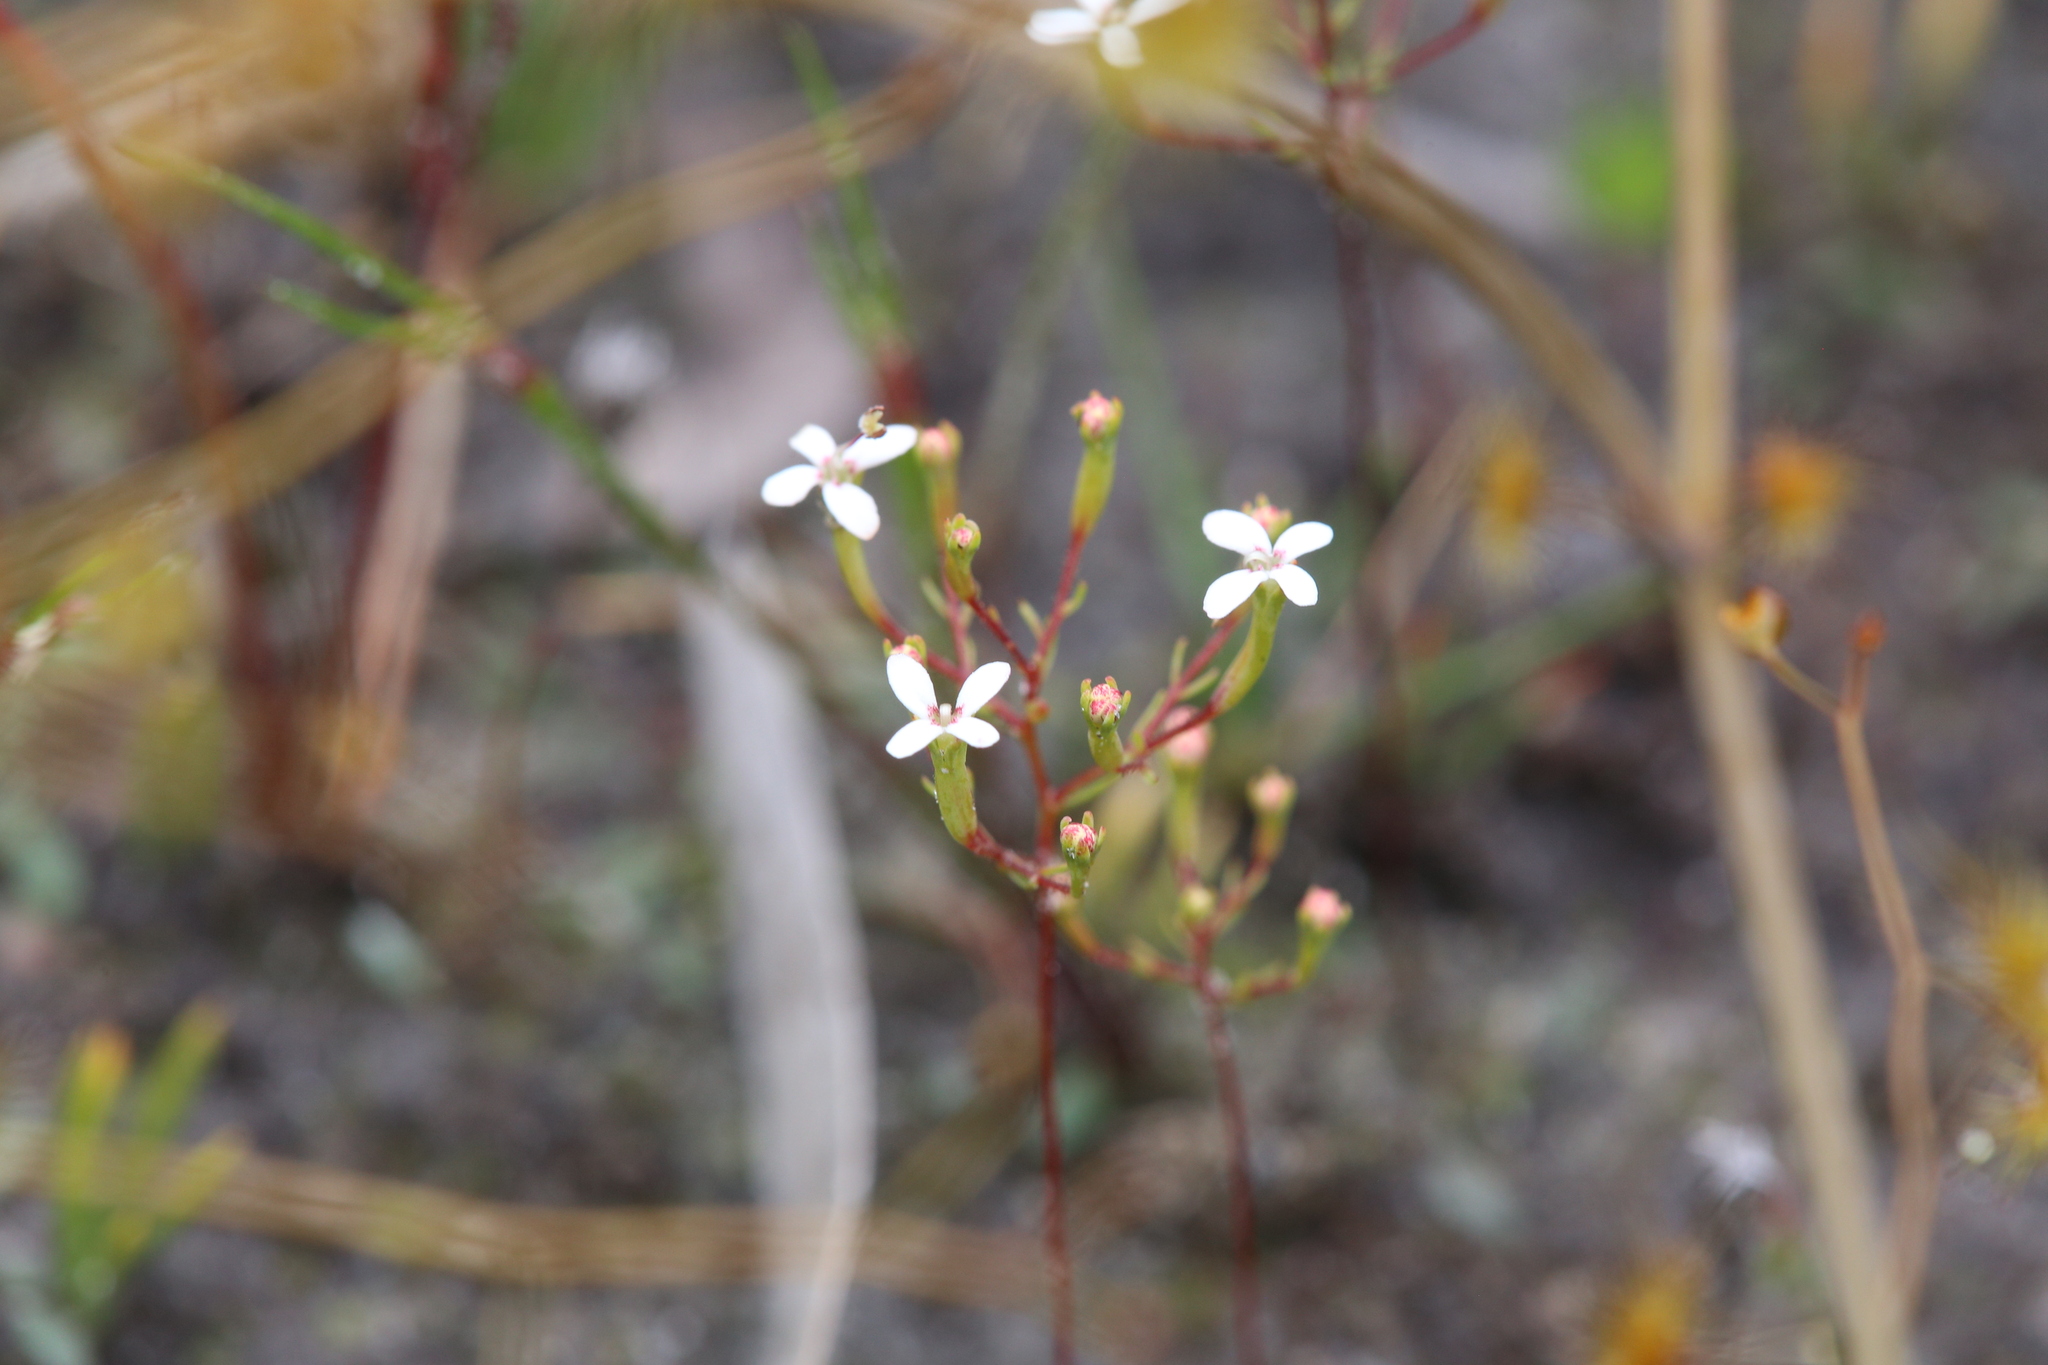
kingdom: Plantae
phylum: Tracheophyta
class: Magnoliopsida
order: Asterales
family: Stylidiaceae
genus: Stylidium
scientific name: Stylidium pulchellum
